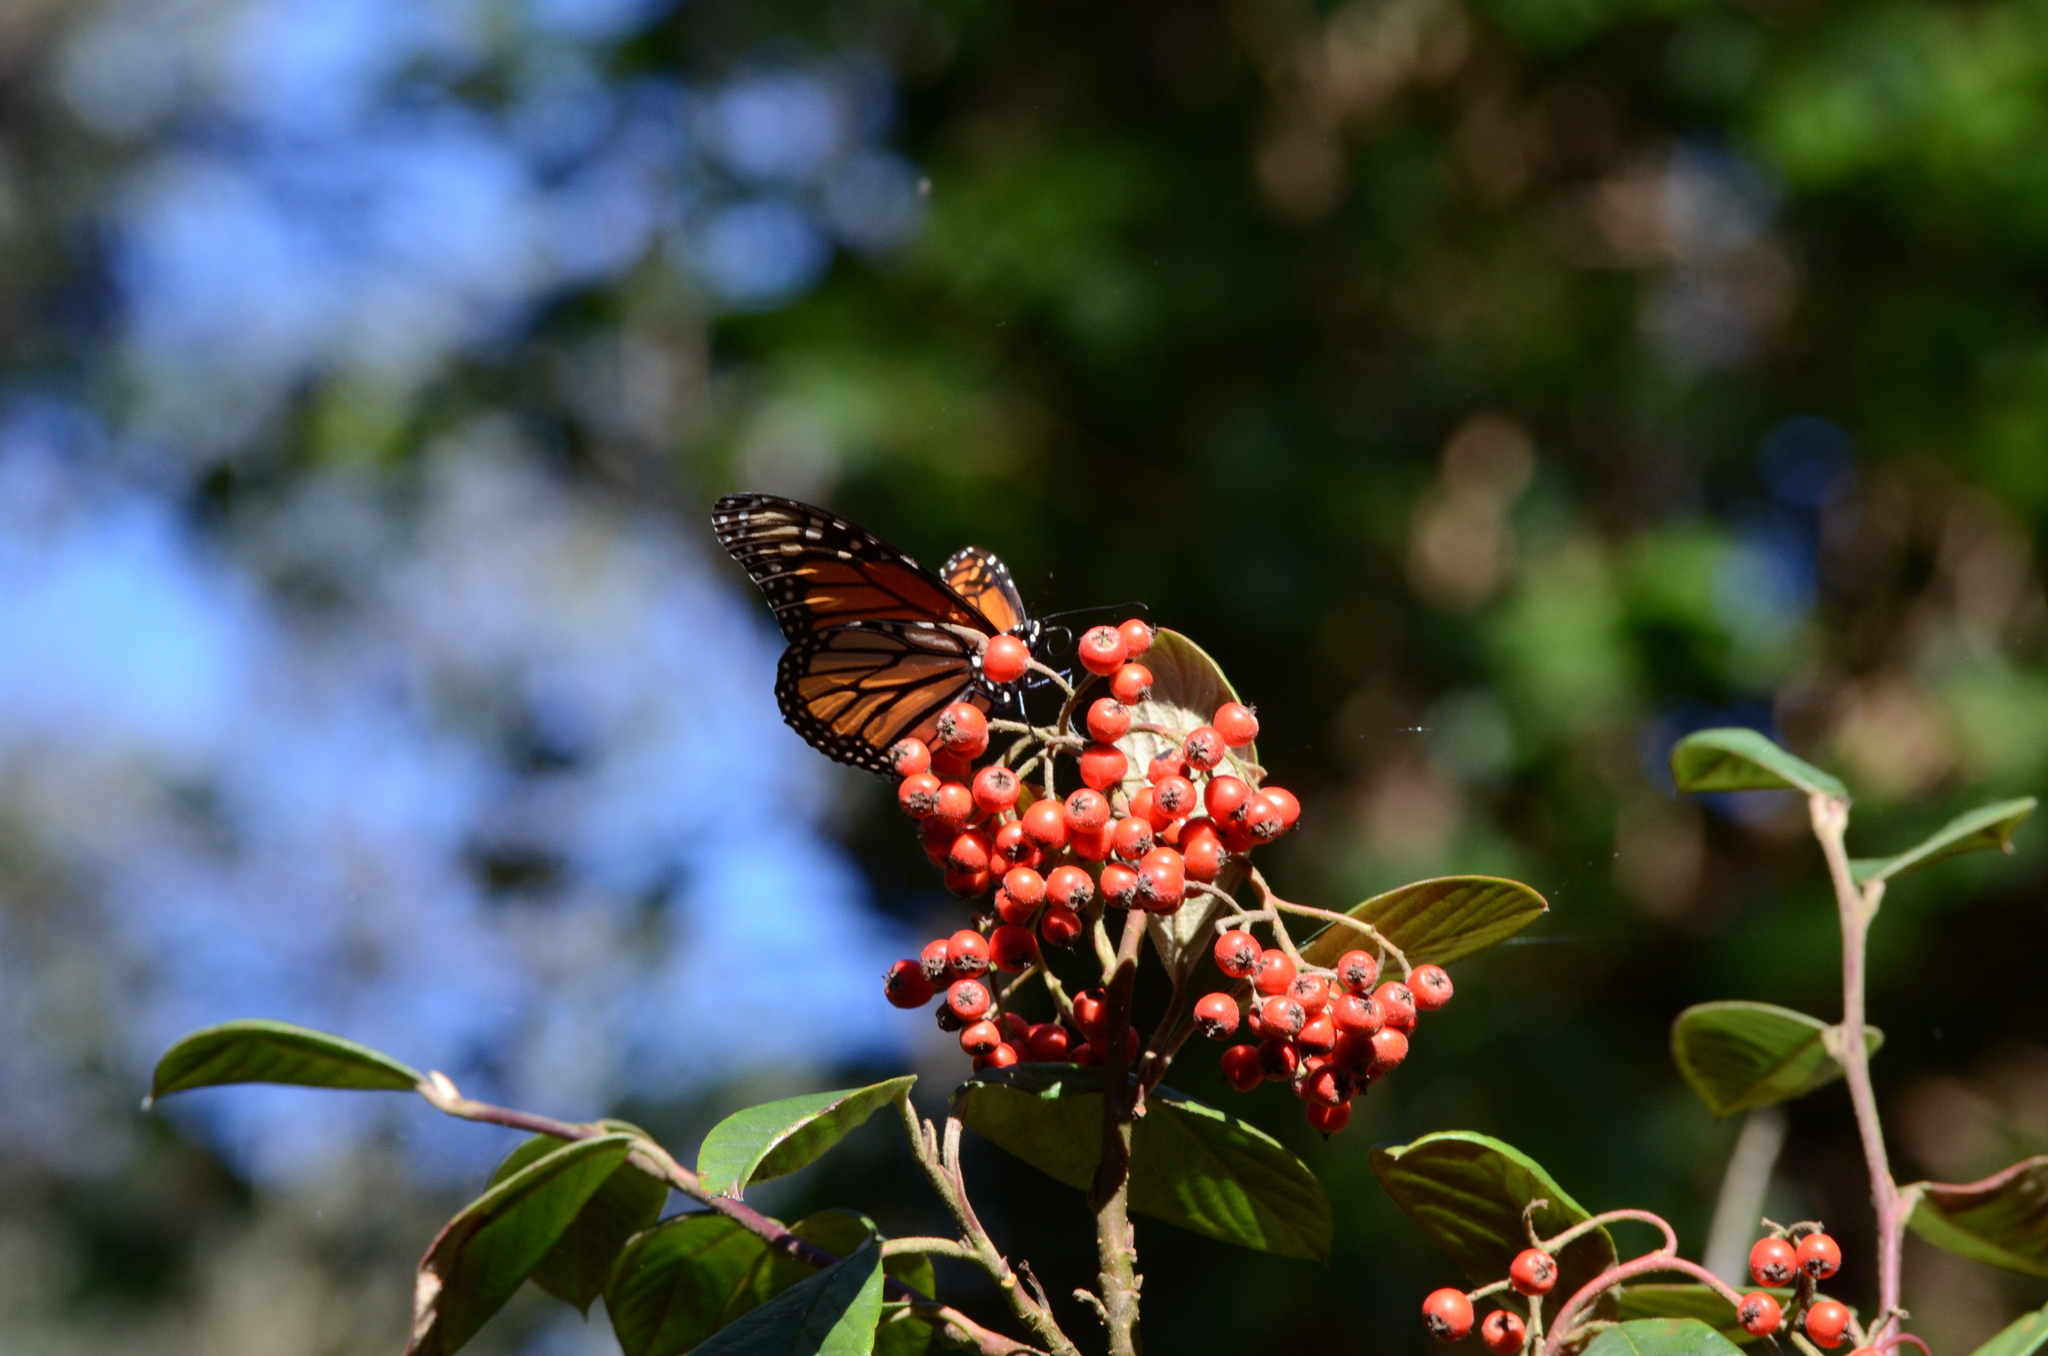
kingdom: Animalia
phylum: Arthropoda
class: Insecta
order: Lepidoptera
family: Nymphalidae
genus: Danaus
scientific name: Danaus plexippus
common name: Monarch
